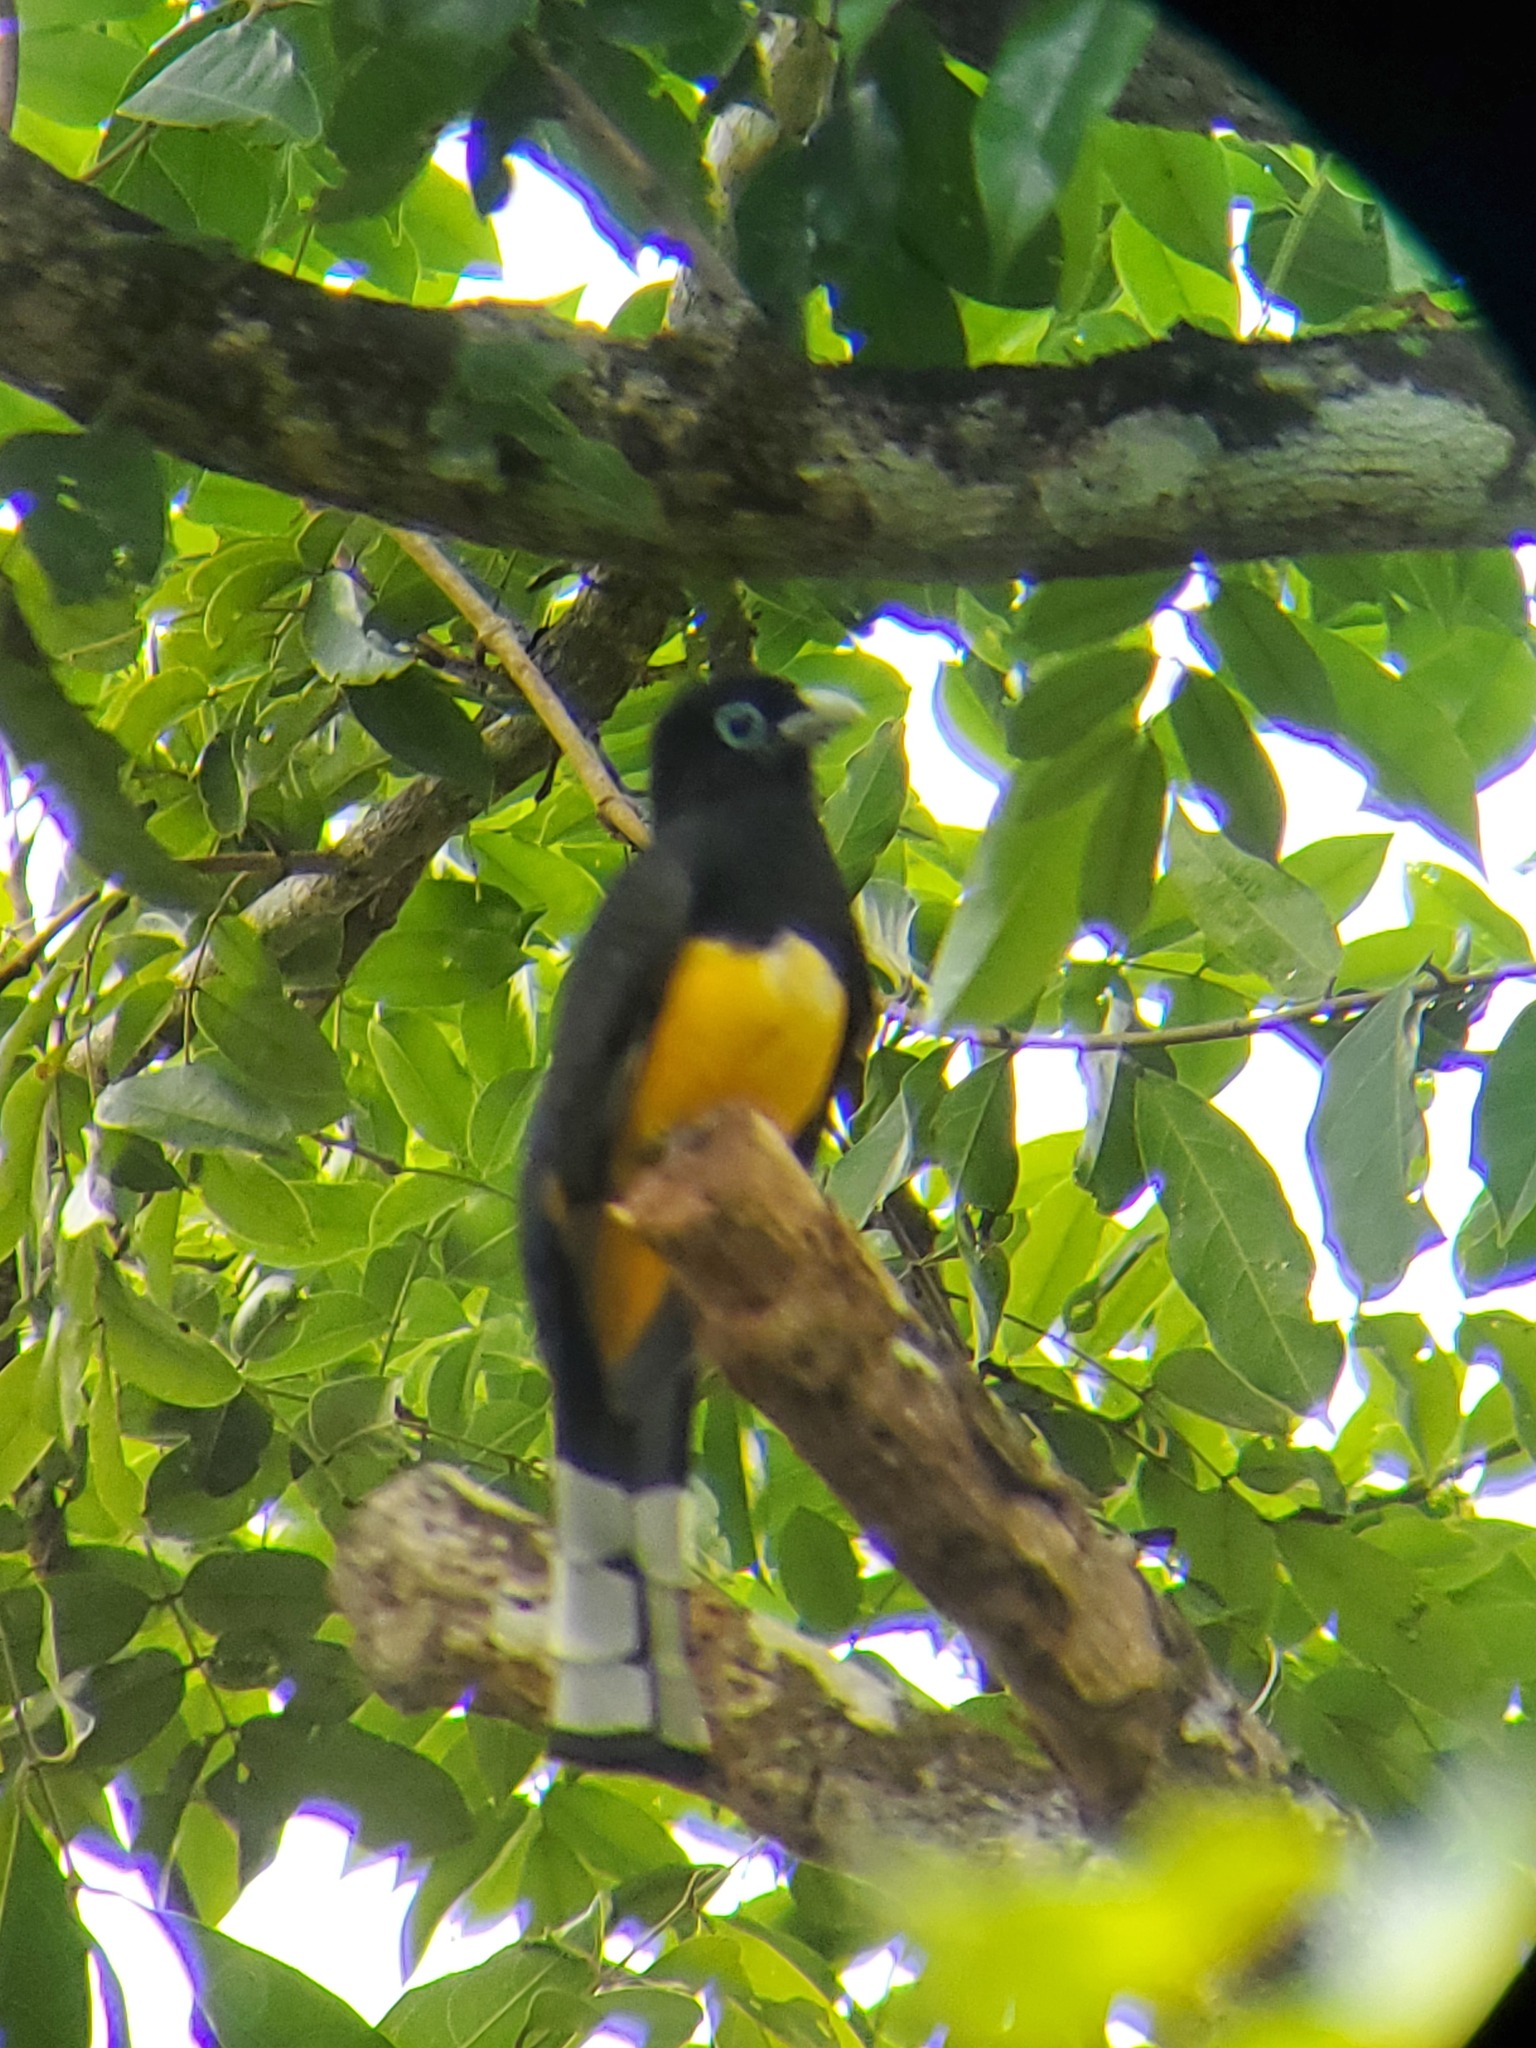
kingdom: Animalia
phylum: Chordata
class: Aves
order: Trogoniformes
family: Trogonidae
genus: Trogon
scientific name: Trogon melanocephalus
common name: Black-headed trogon
